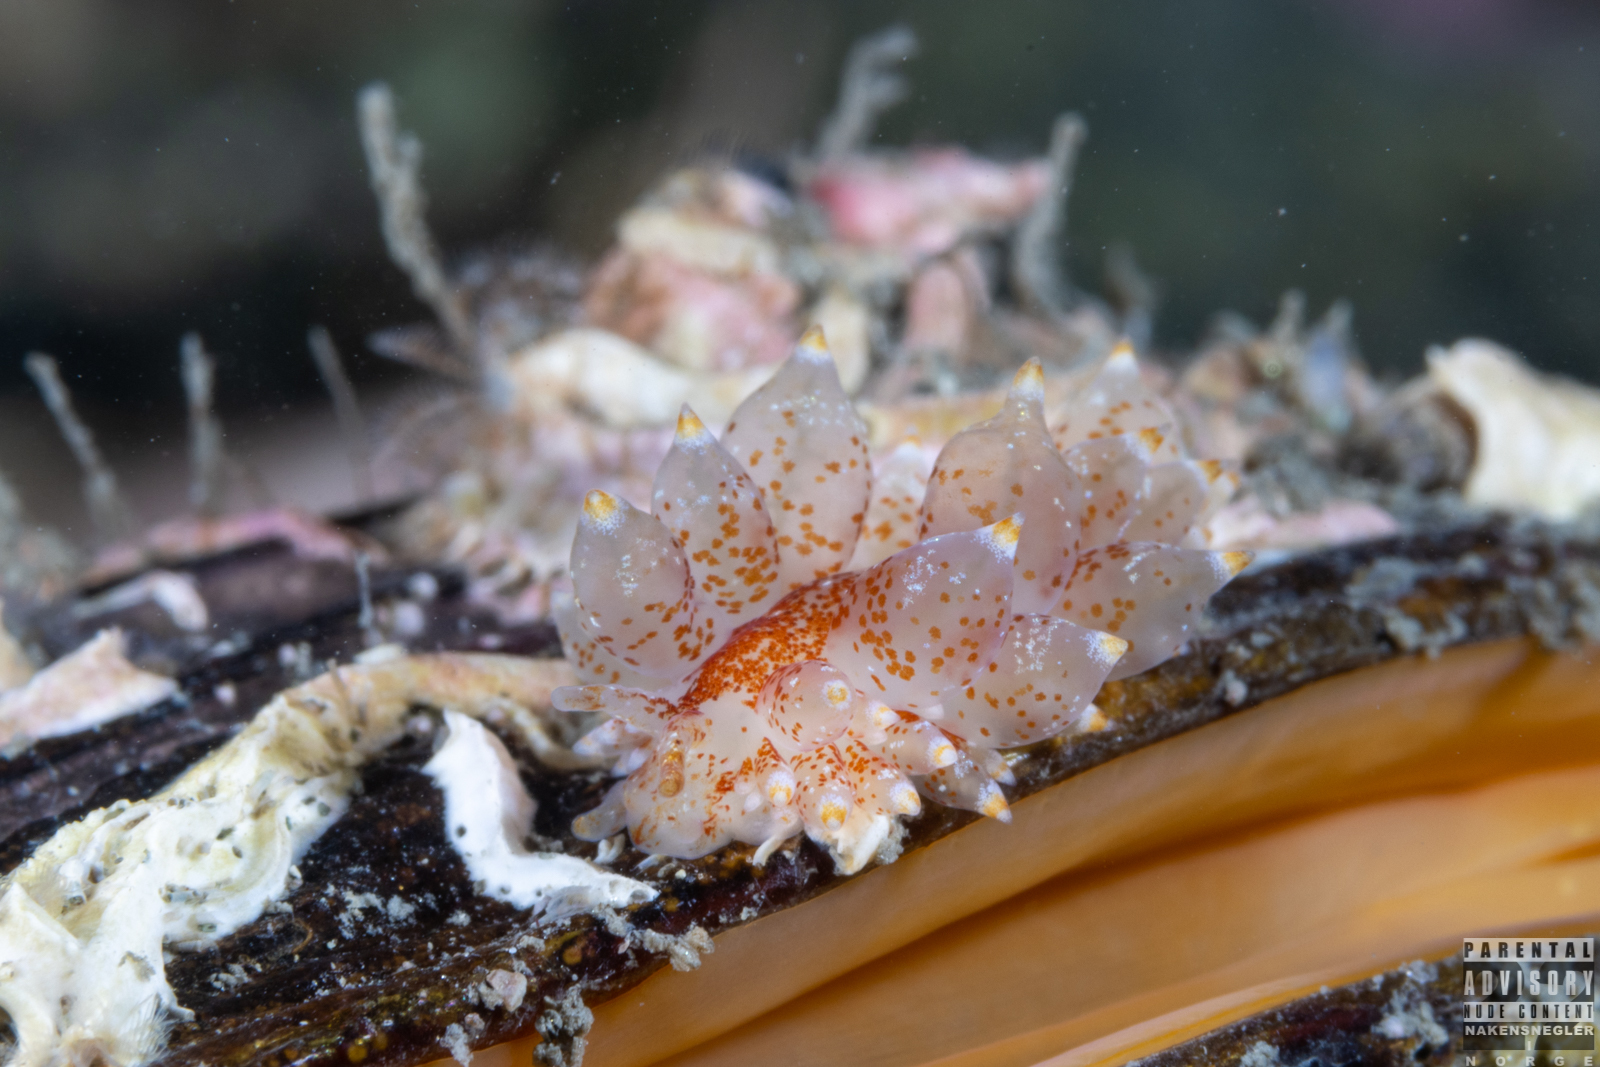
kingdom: Animalia
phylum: Mollusca
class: Gastropoda
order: Nudibranchia
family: Eubranchidae
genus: Amphorina
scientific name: Amphorina pallida
